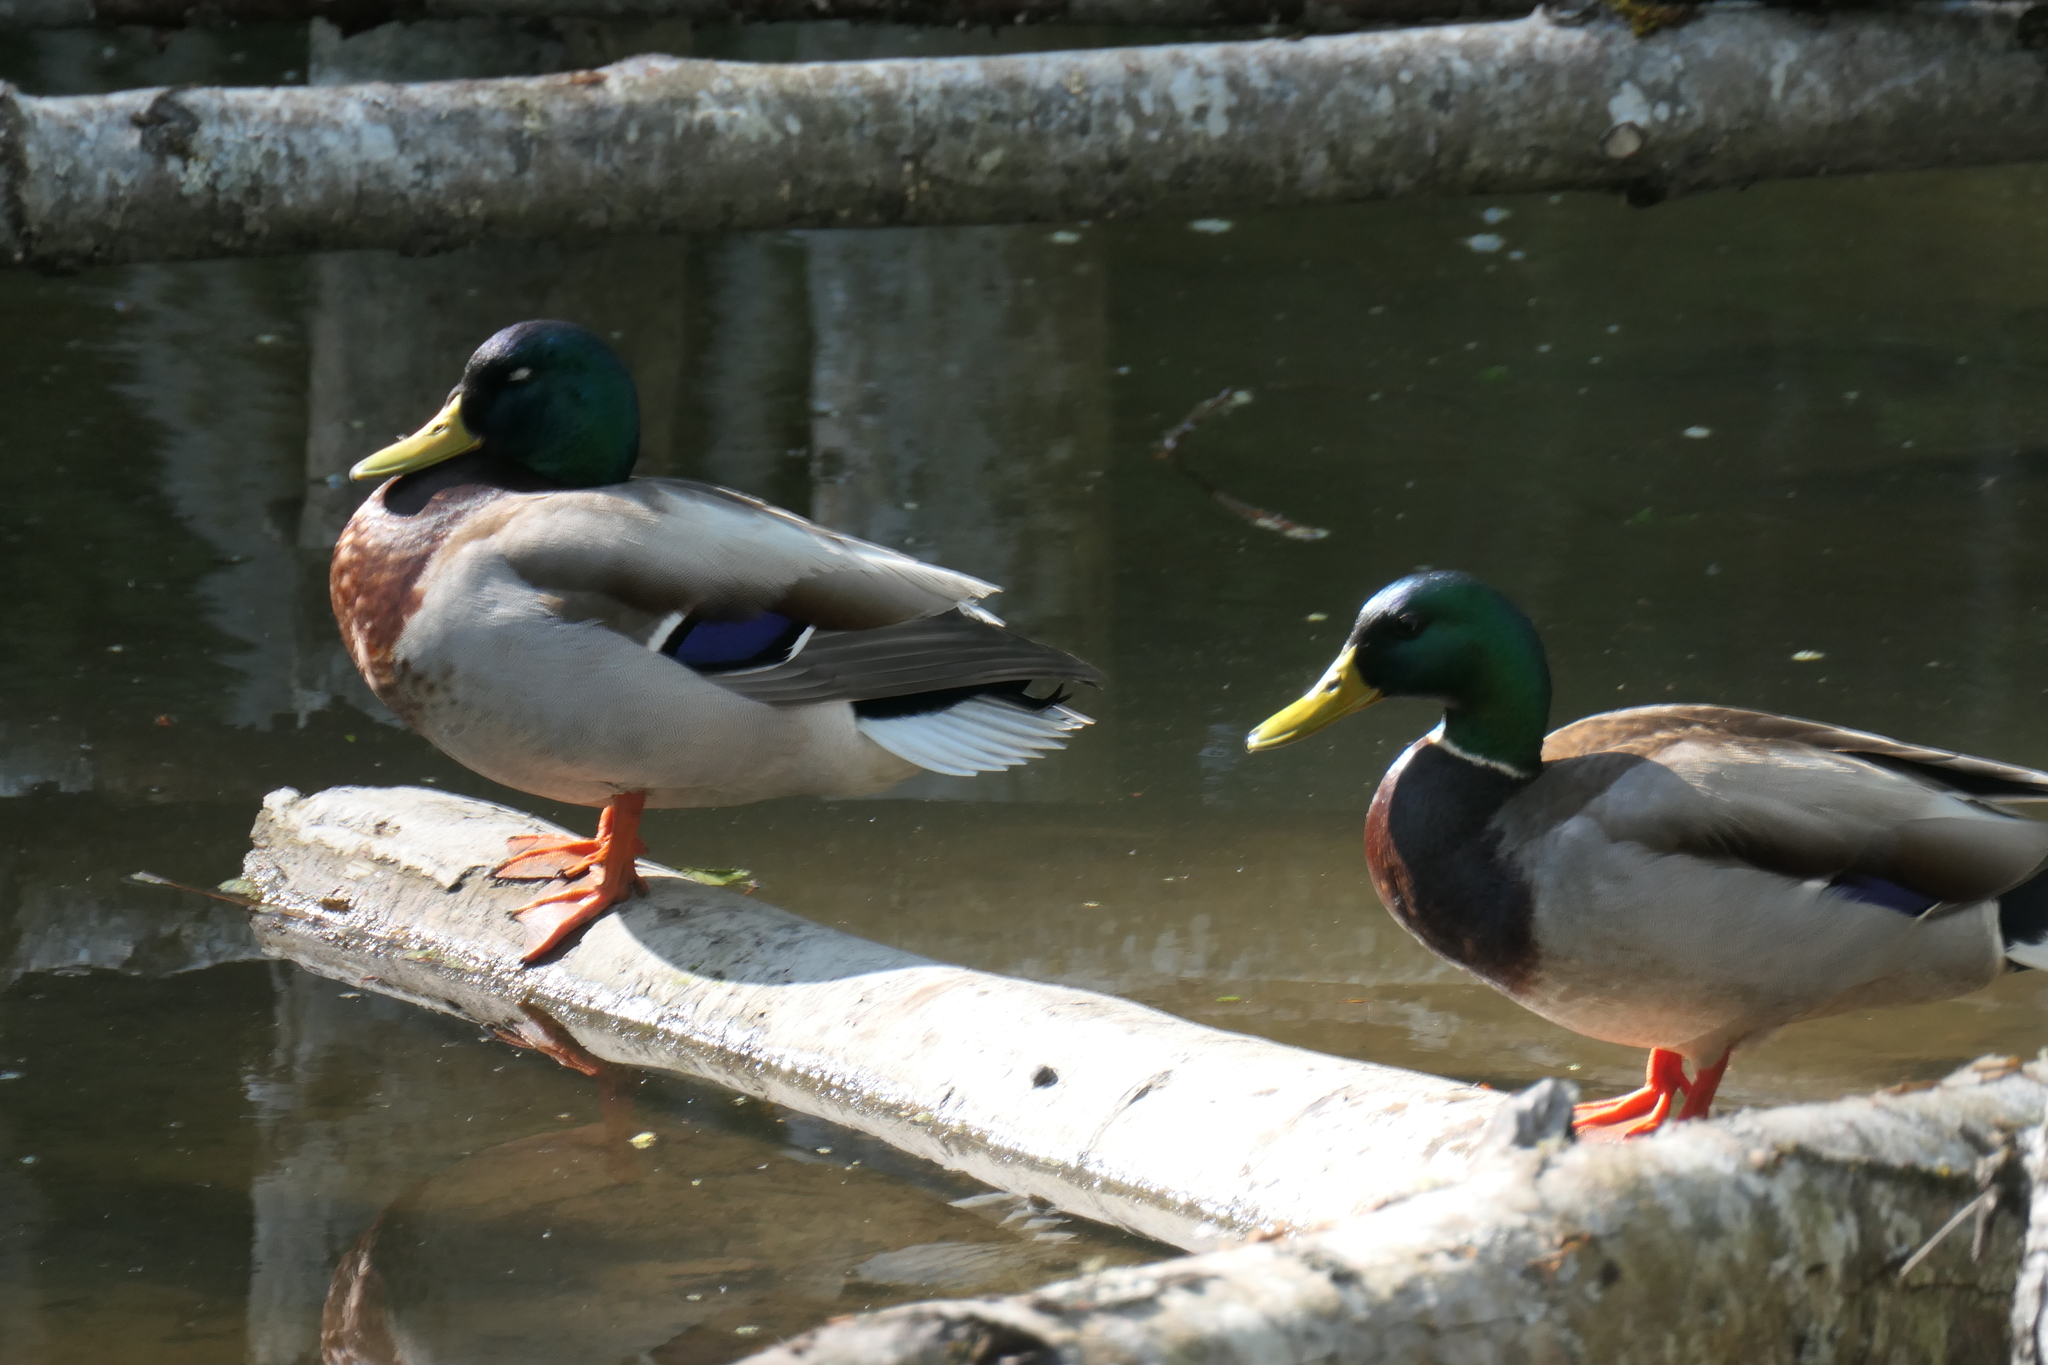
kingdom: Animalia
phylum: Chordata
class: Aves
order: Anseriformes
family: Anatidae
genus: Anas
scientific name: Anas platyrhynchos
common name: Mallard
